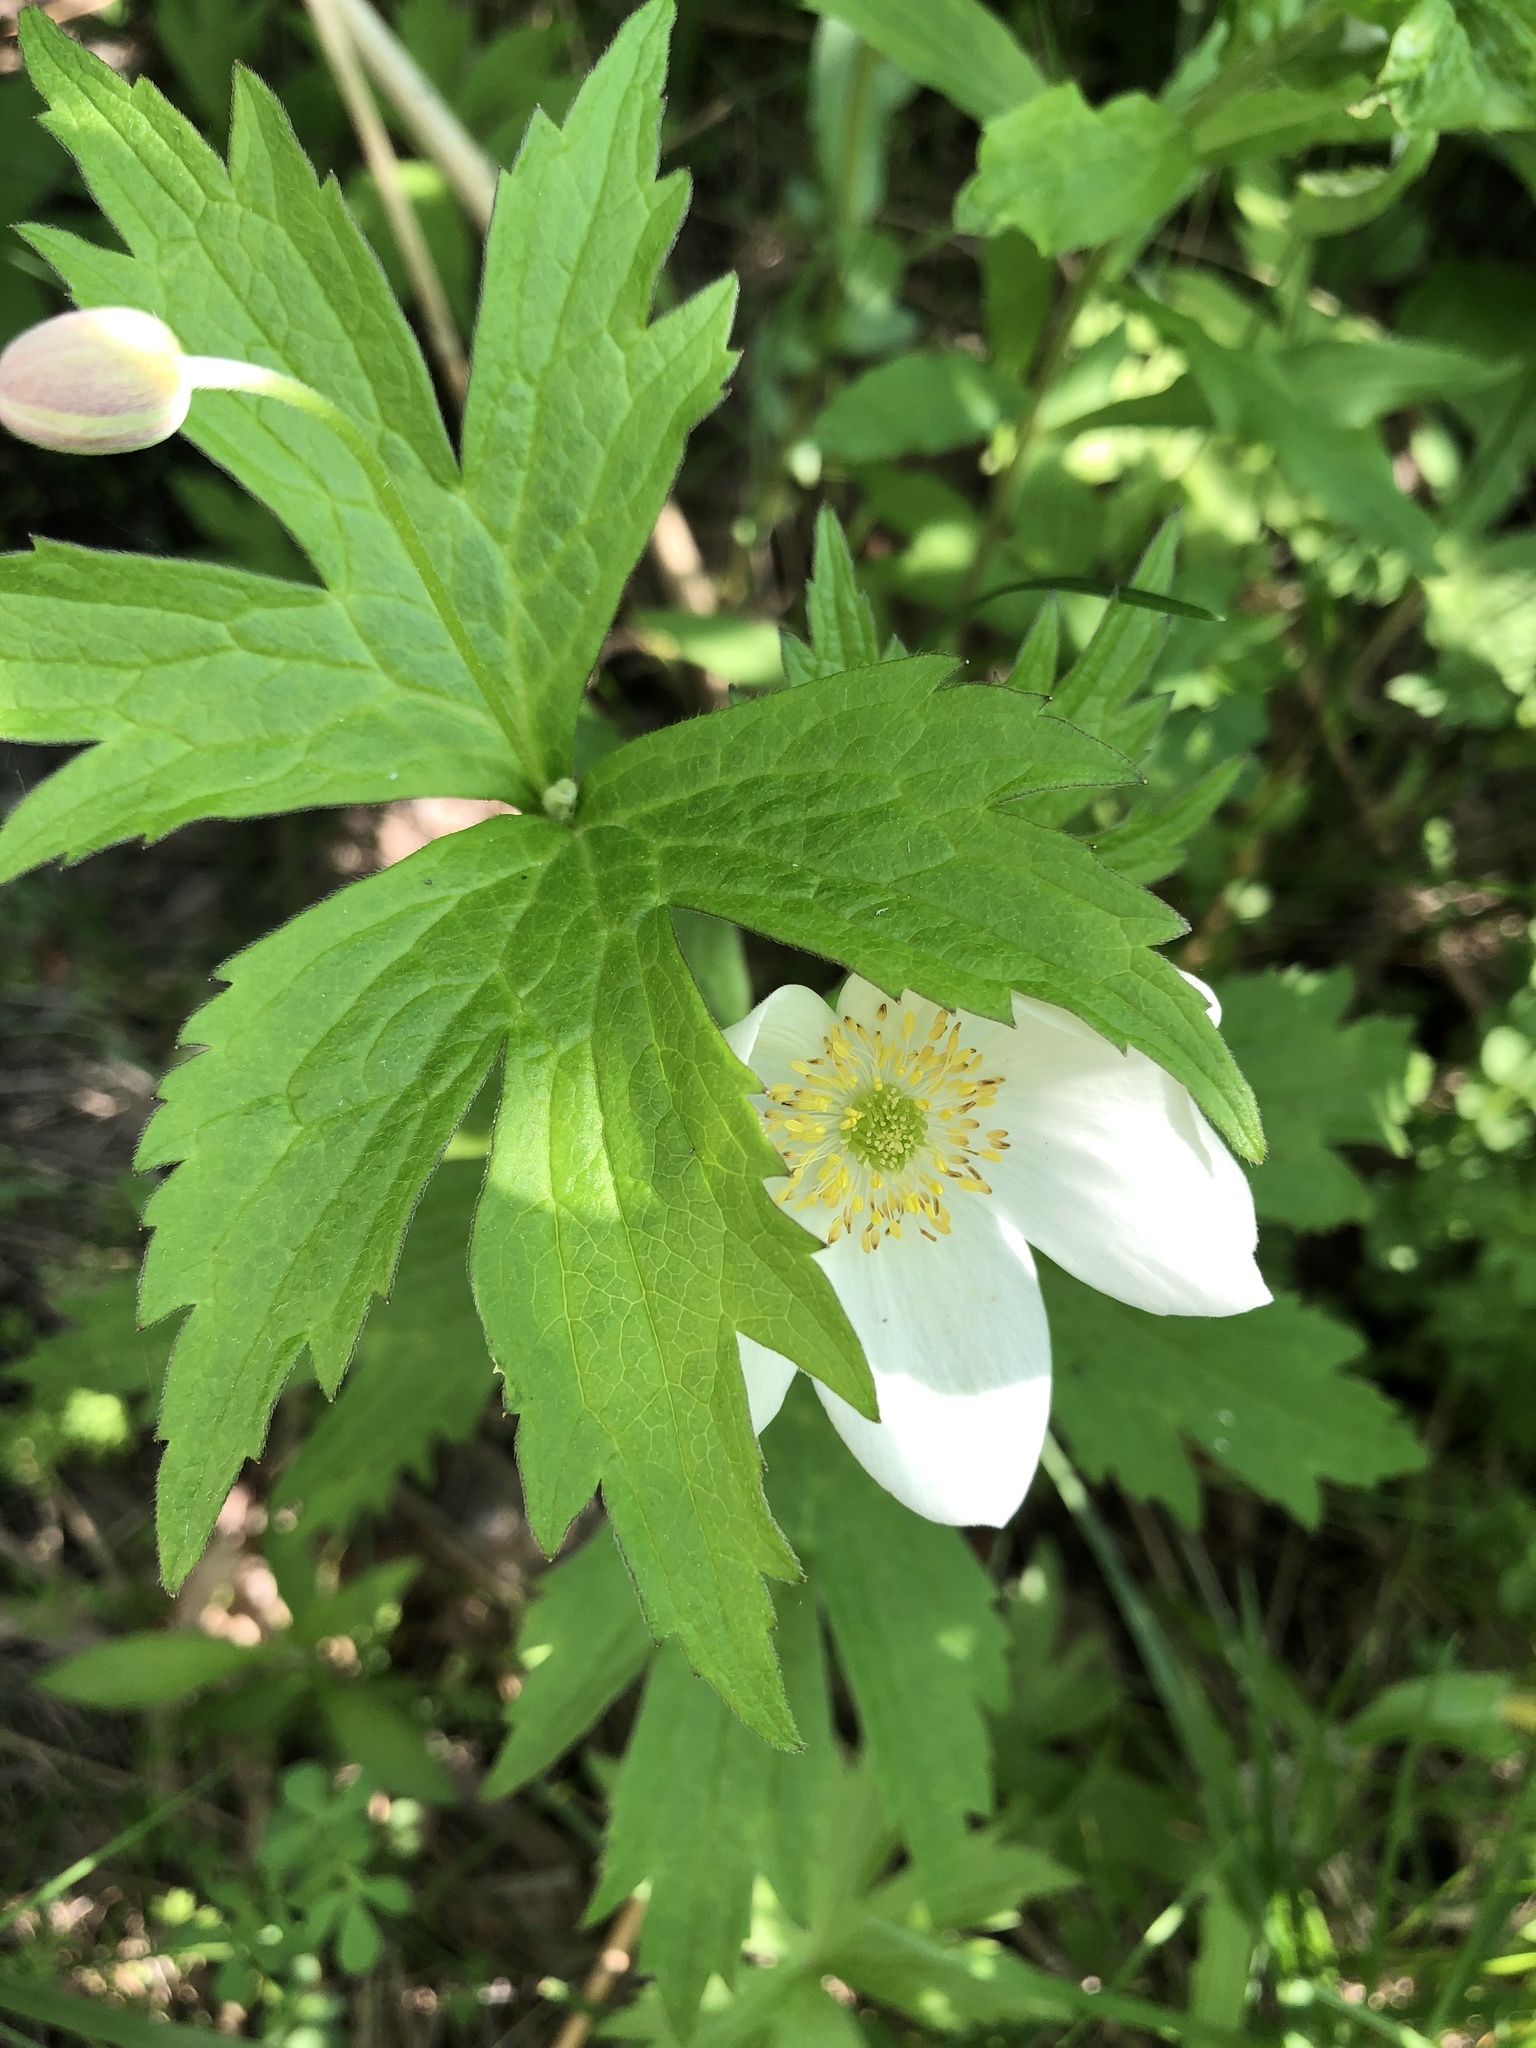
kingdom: Plantae
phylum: Tracheophyta
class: Magnoliopsida
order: Ranunculales
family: Ranunculaceae
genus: Anemonastrum
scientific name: Anemonastrum canadense
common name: Canada anemone
